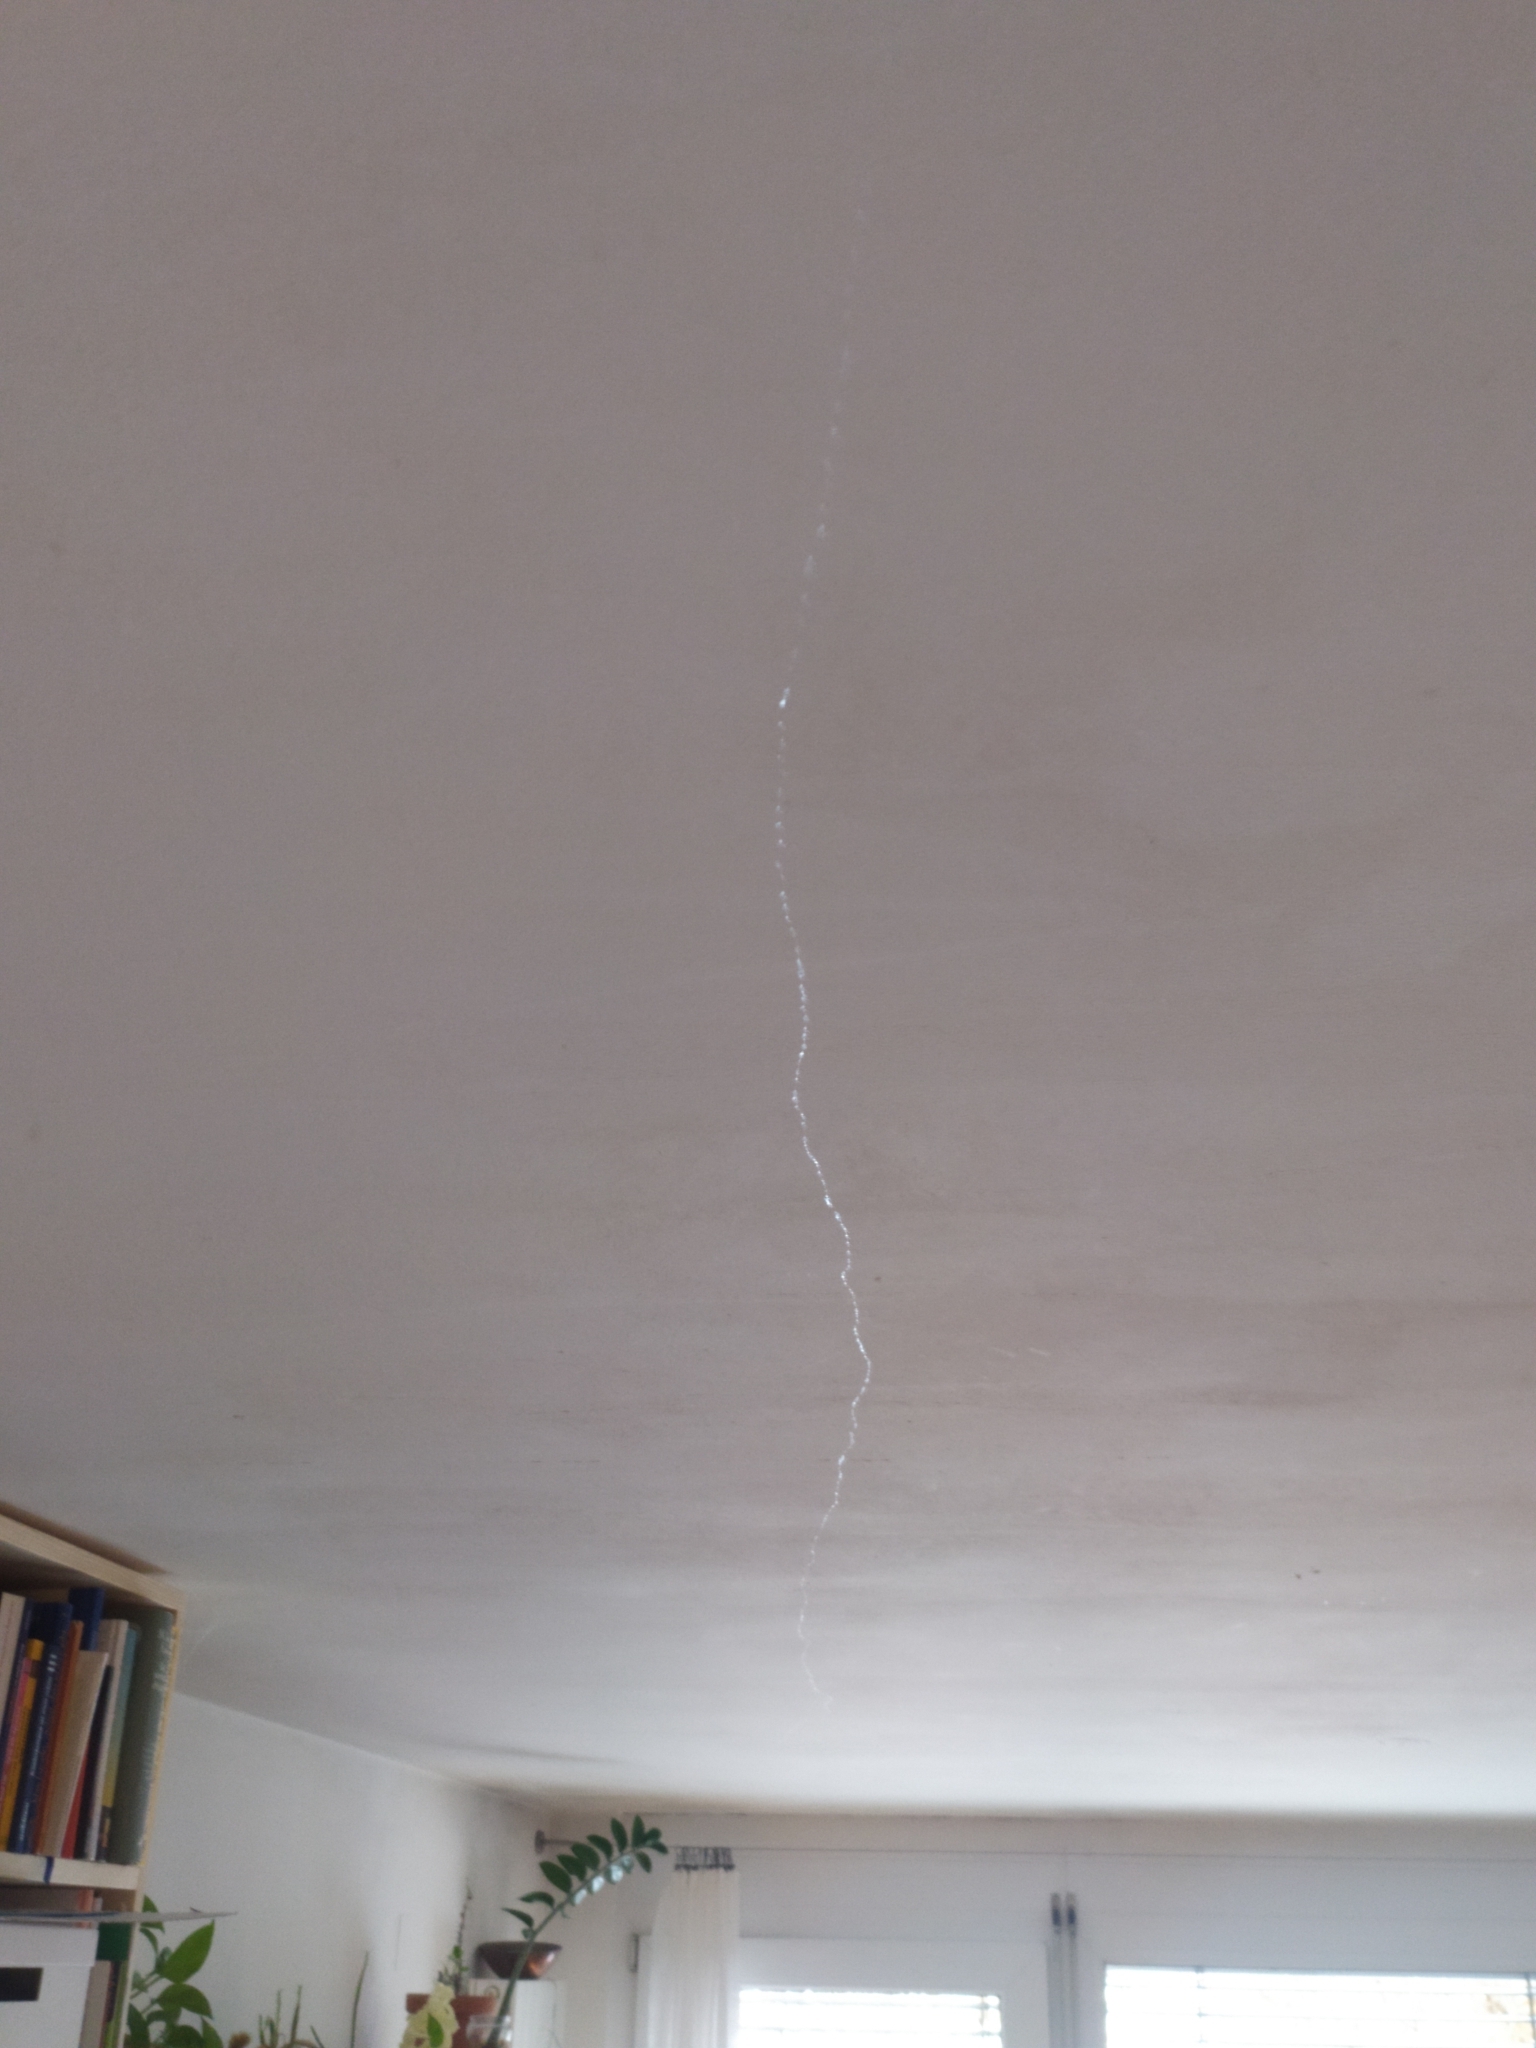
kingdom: Animalia
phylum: Mollusca
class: Gastropoda
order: Stylommatophora
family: Limacidae
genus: Limax
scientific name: Limax maximus
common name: Great grey slug
